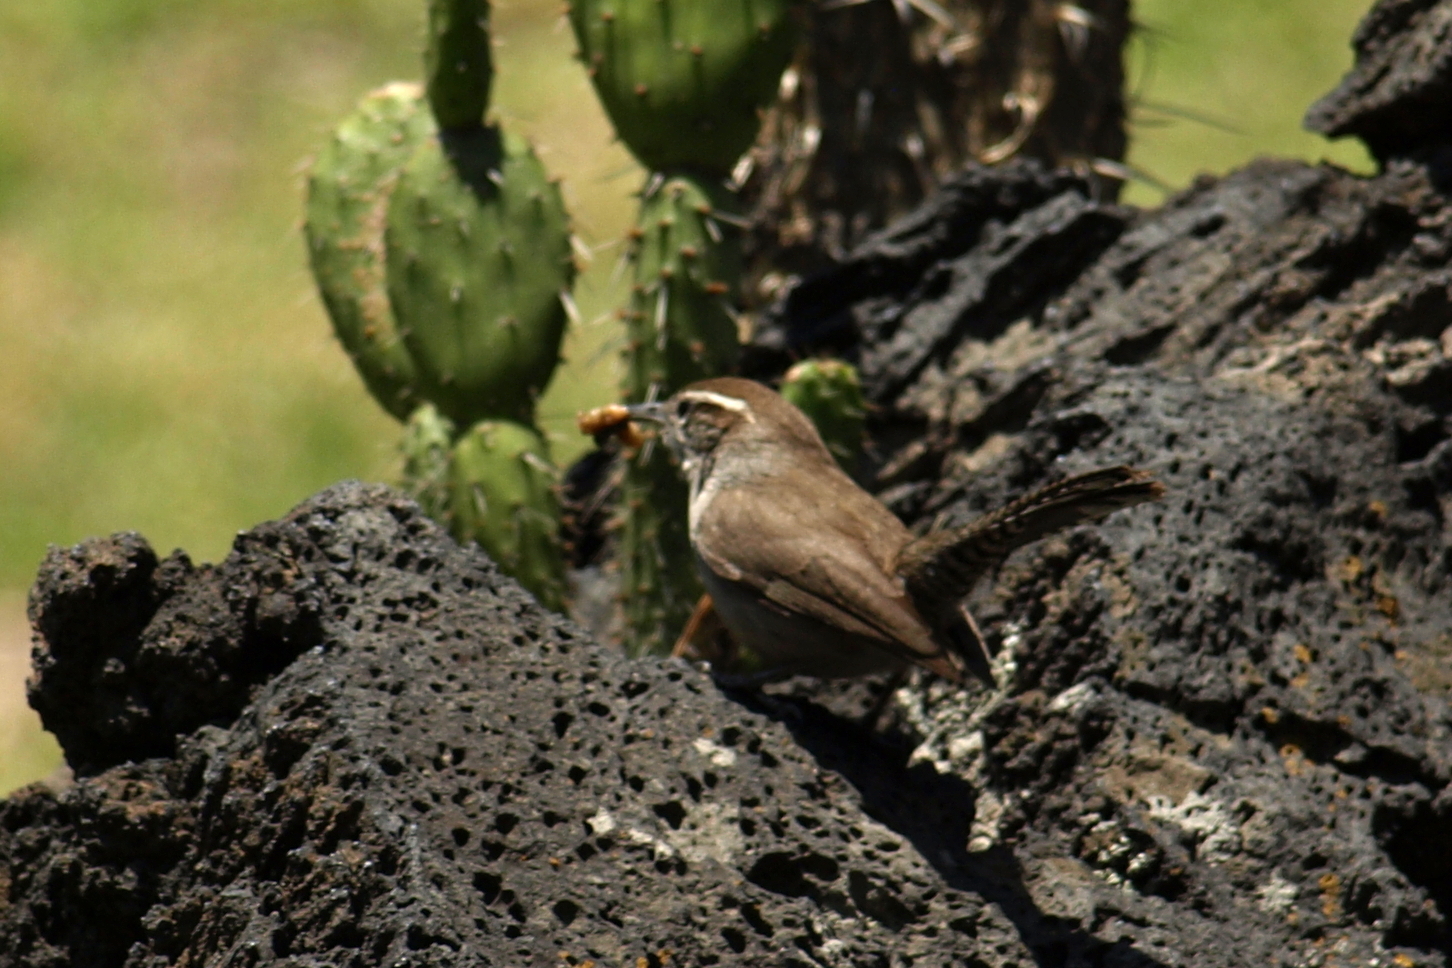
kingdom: Animalia
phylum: Chordata
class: Aves
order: Passeriformes
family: Troglodytidae
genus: Thryomanes
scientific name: Thryomanes bewickii
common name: Bewick's wren
